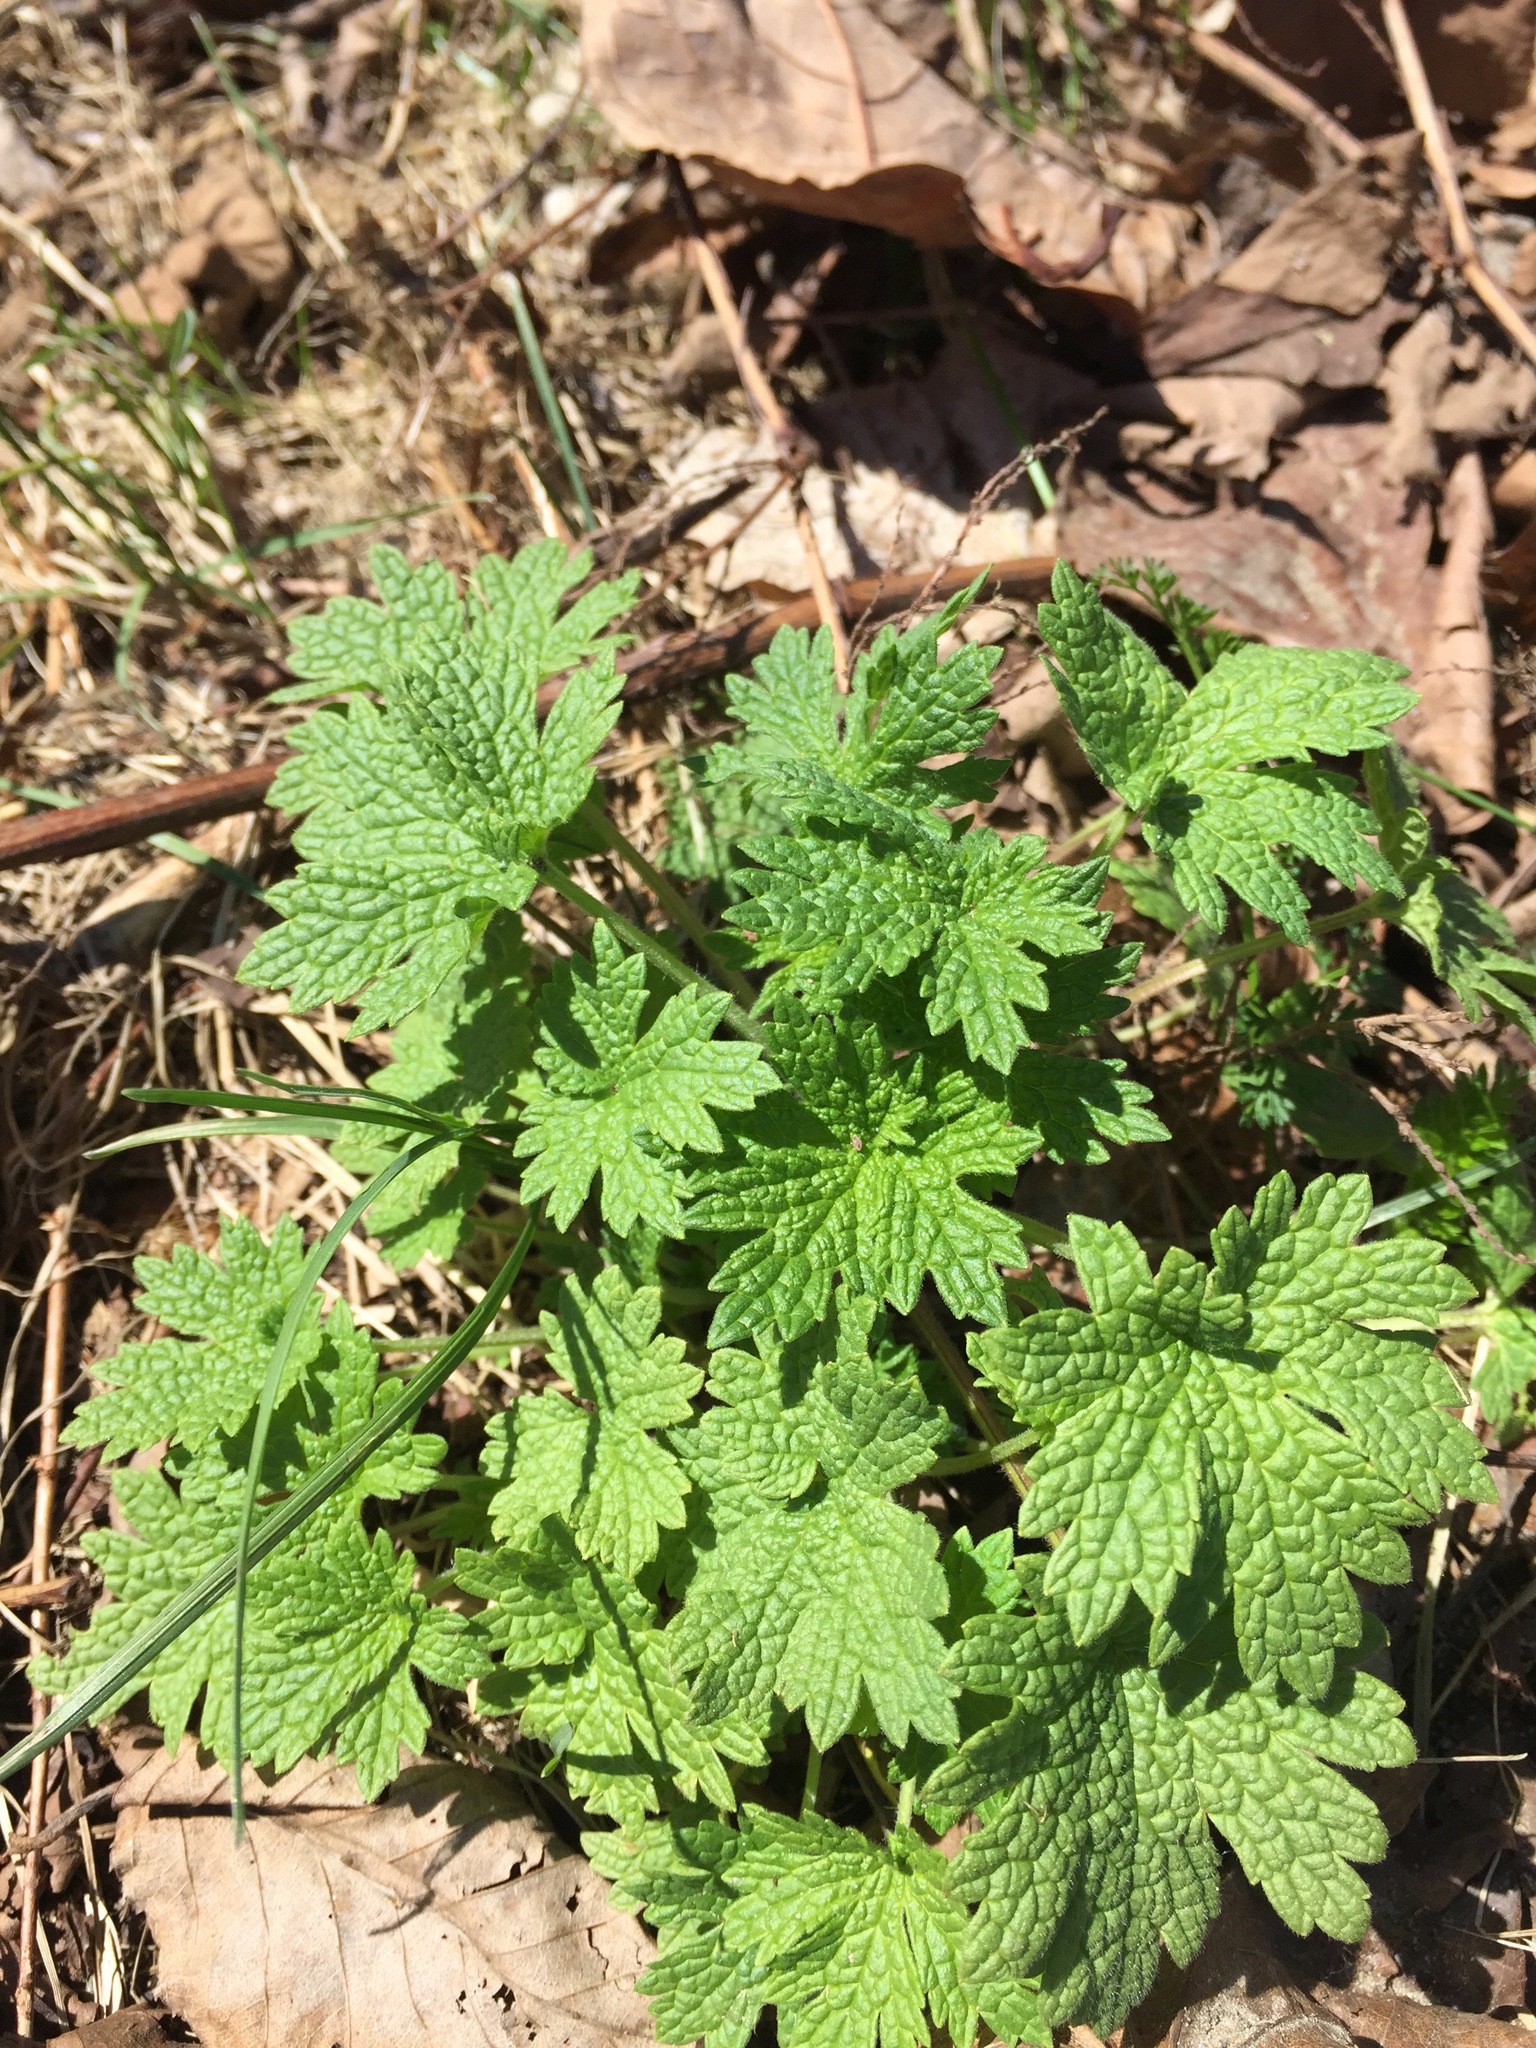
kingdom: Plantae
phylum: Tracheophyta
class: Magnoliopsida
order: Lamiales
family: Lamiaceae
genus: Leonurus
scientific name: Leonurus cardiaca
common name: Motherwort
